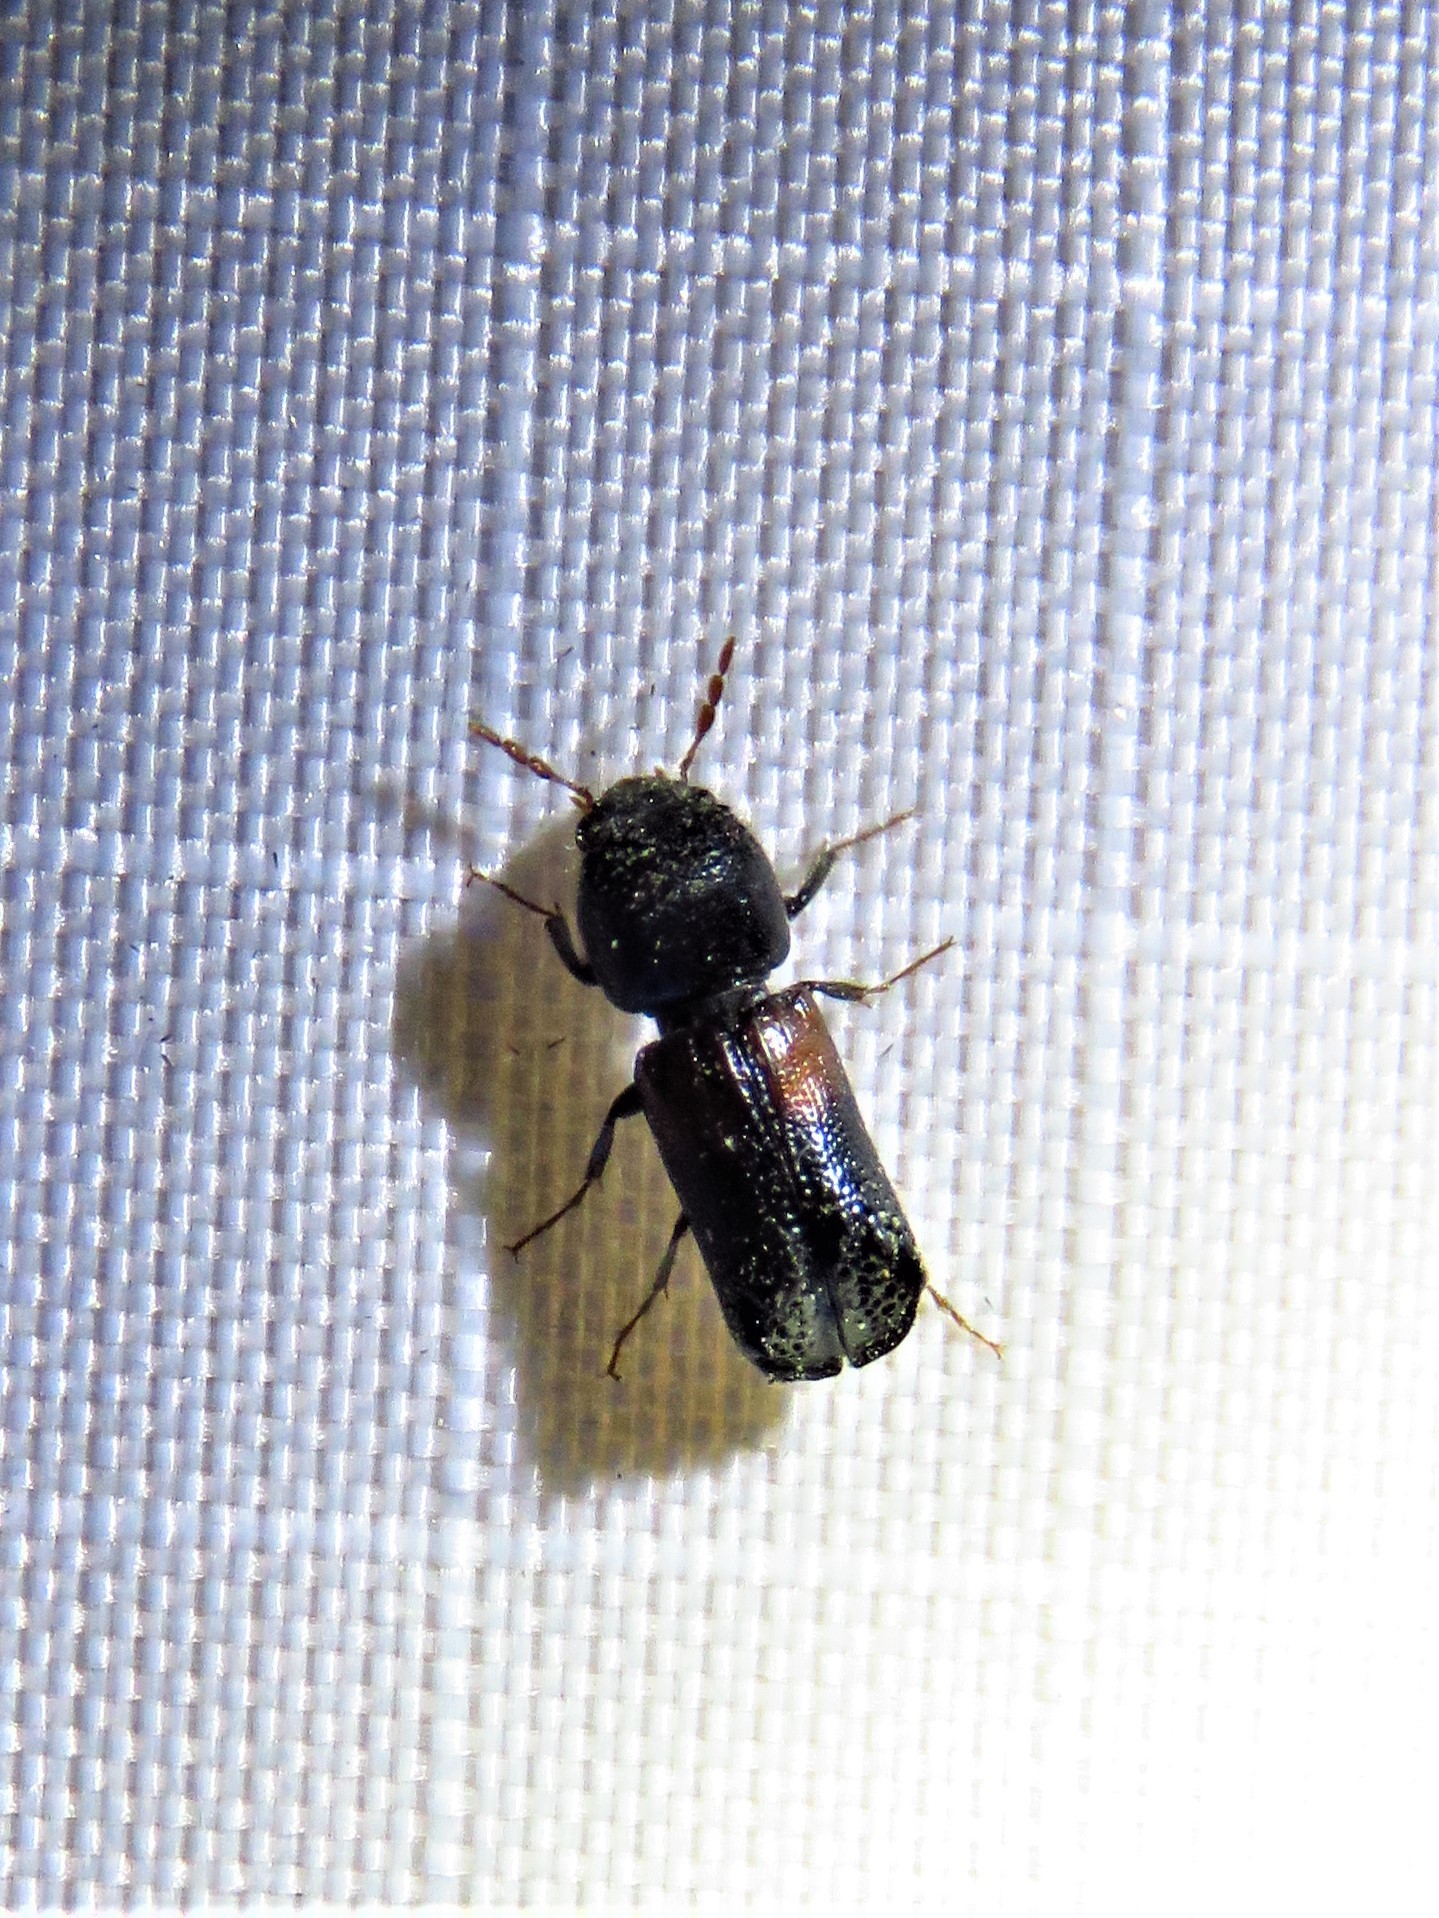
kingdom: Animalia
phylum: Arthropoda
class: Insecta
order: Coleoptera
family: Bostrichidae
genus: Xylobiops
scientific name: Xylobiops basilaris
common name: Red-shouldered bostrichid
